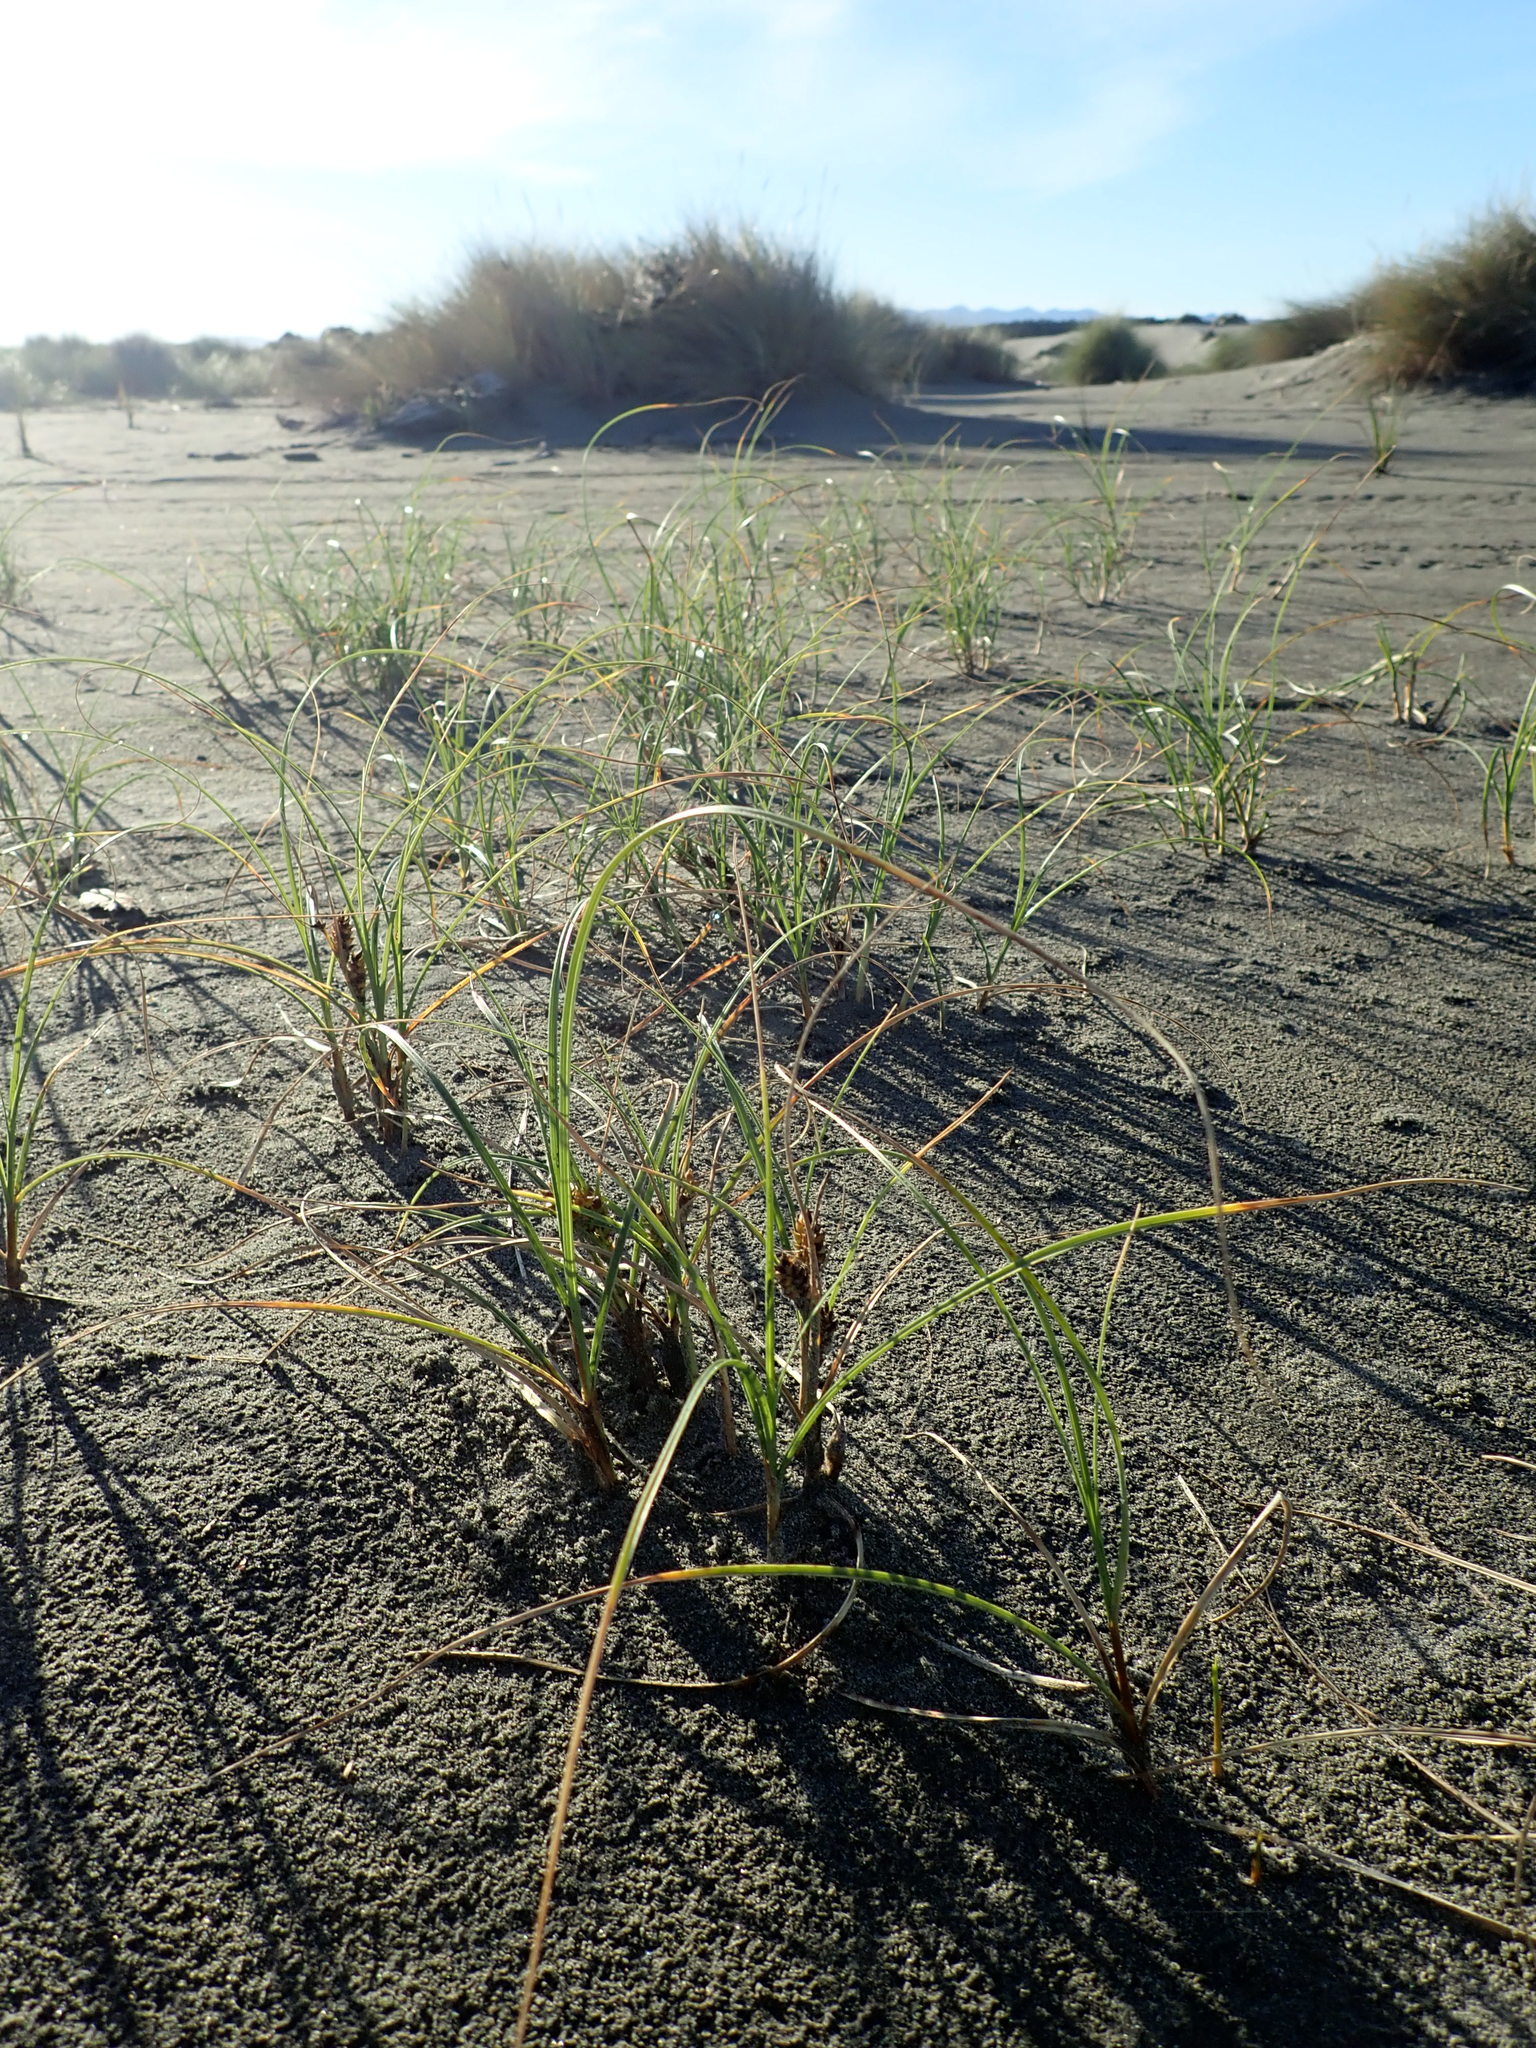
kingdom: Plantae
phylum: Tracheophyta
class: Liliopsida
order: Poales
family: Cyperaceae
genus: Carex
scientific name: Carex pumila
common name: Dwarf sedge
